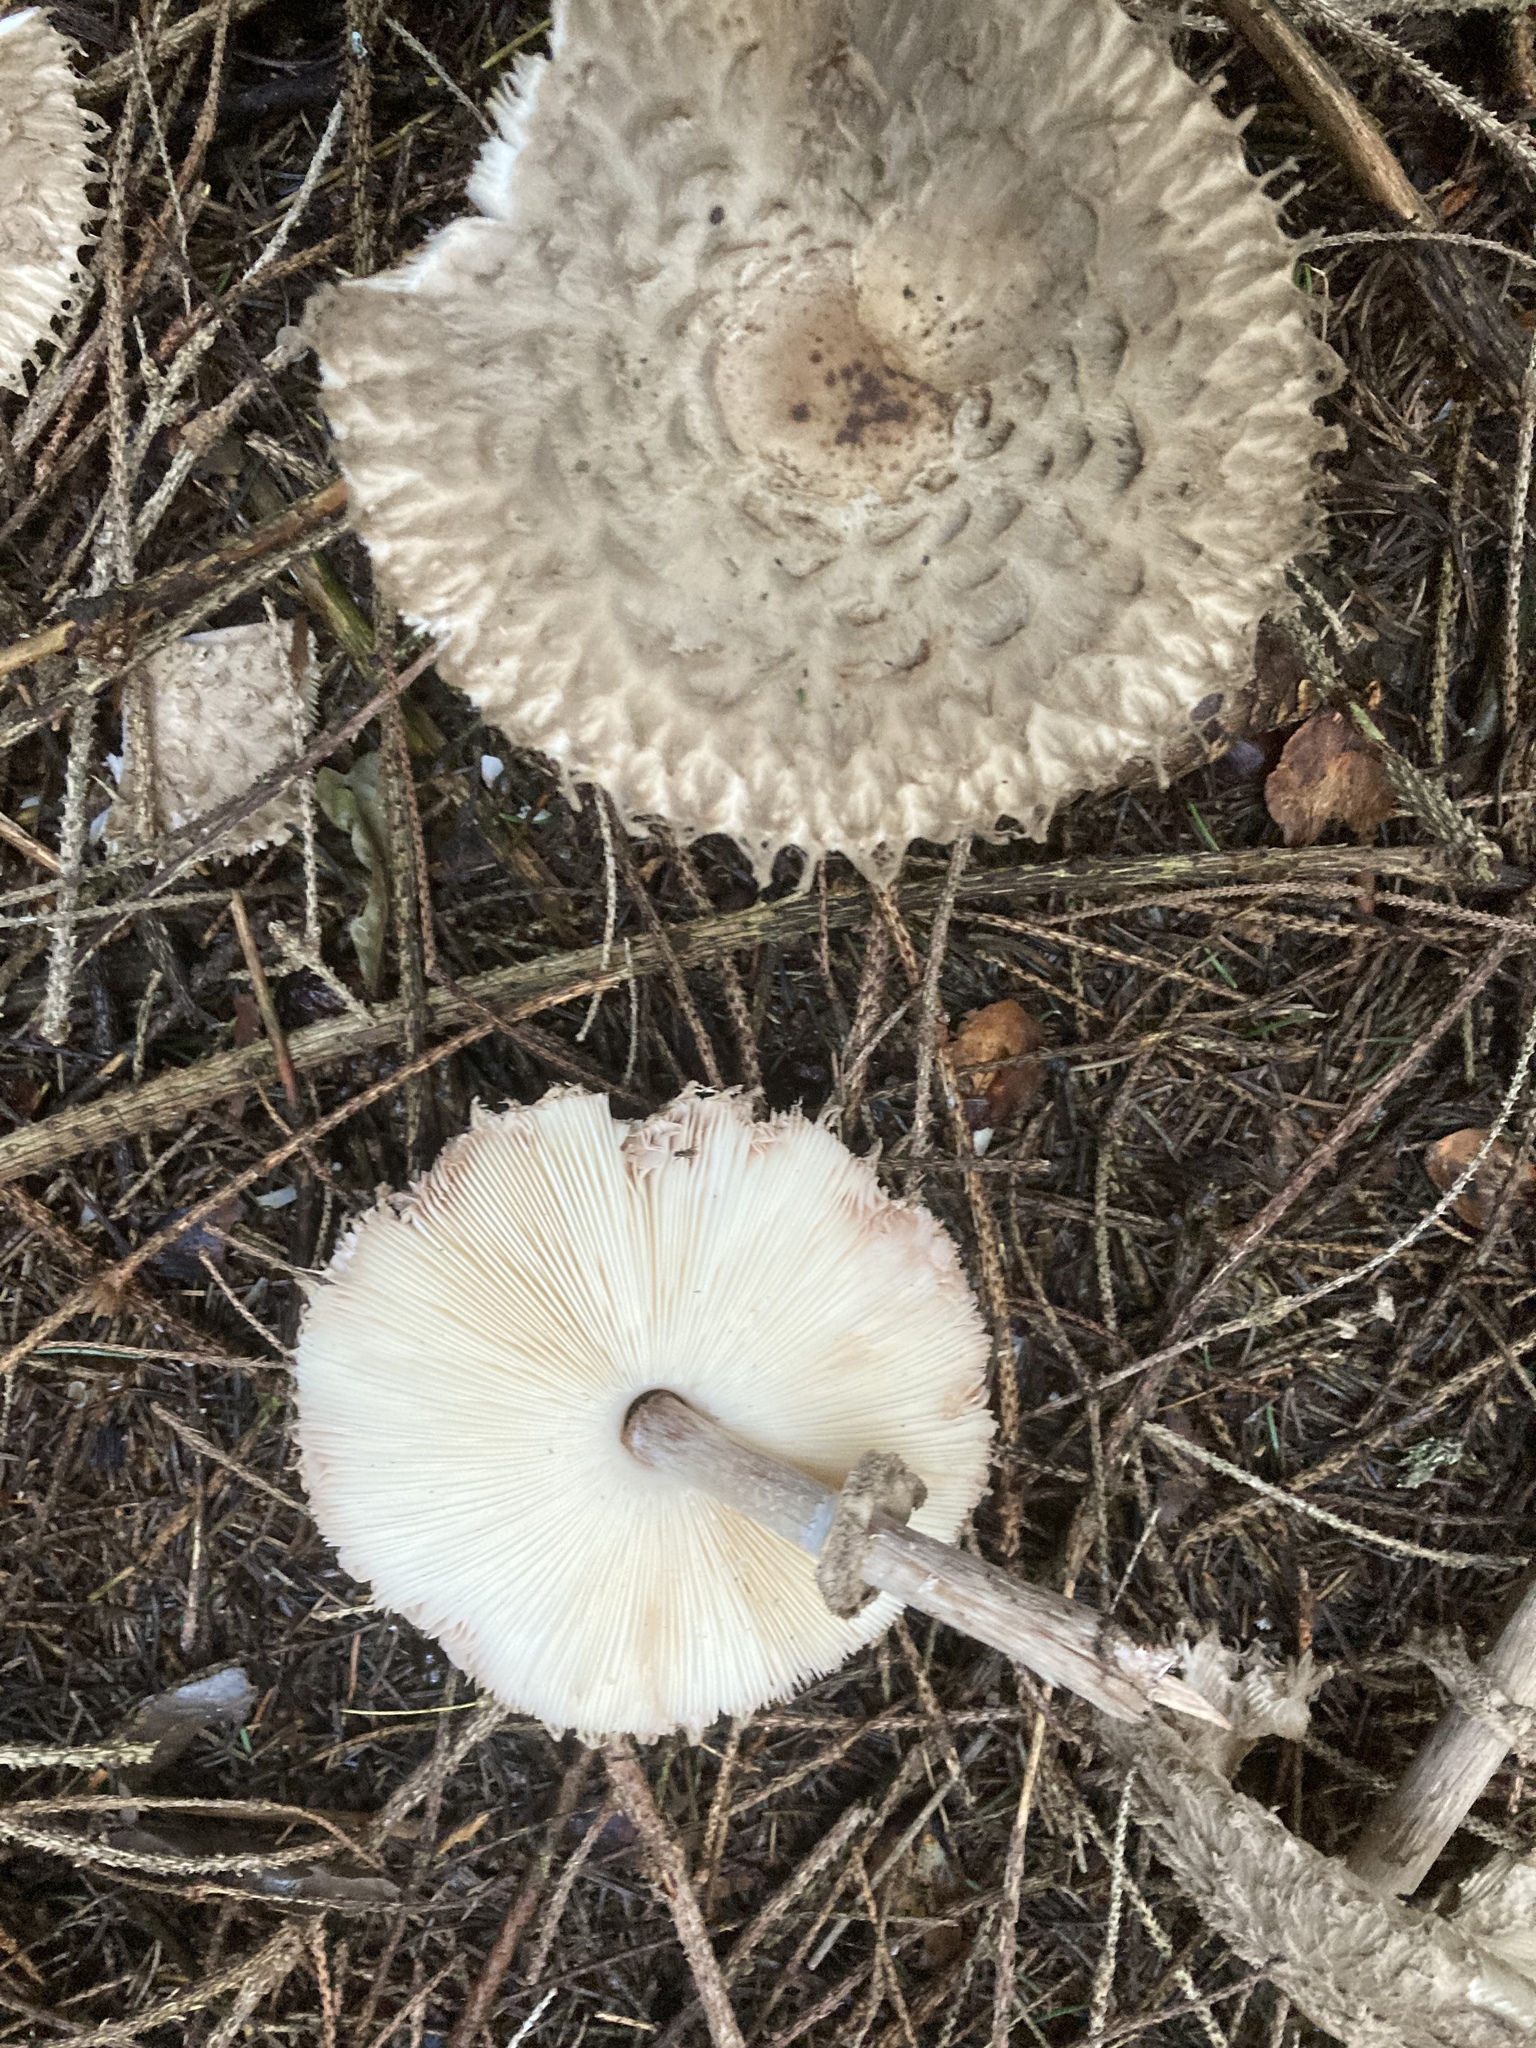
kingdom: Fungi
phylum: Basidiomycota
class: Agaricomycetes
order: Agaricales
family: Agaricaceae
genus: Chlorophyllum
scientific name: Chlorophyllum olivieri
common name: Conifer parasol
